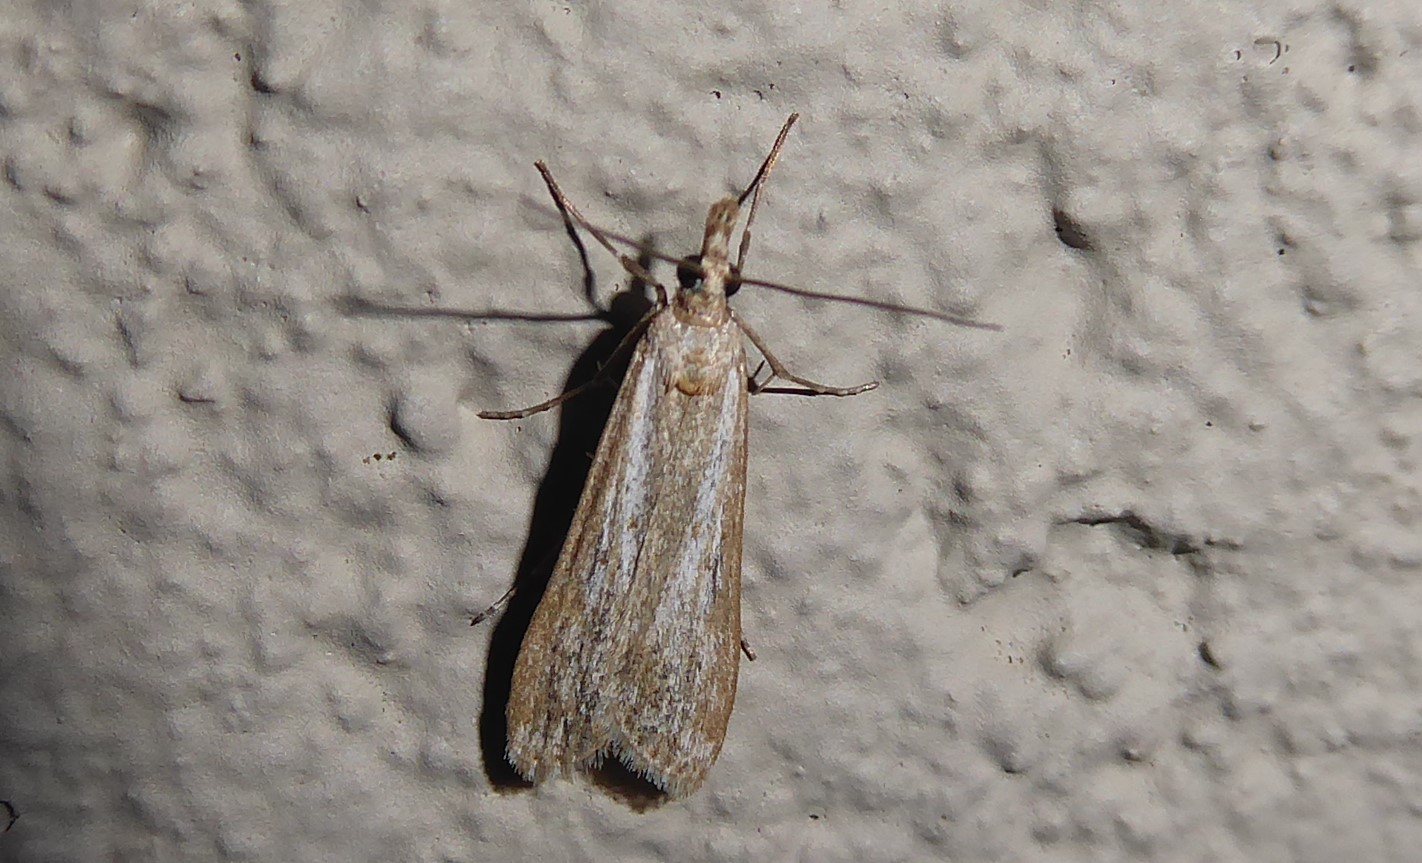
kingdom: Animalia
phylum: Arthropoda
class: Insecta
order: Lepidoptera
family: Crambidae
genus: Eudonia
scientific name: Eudonia leptalea
